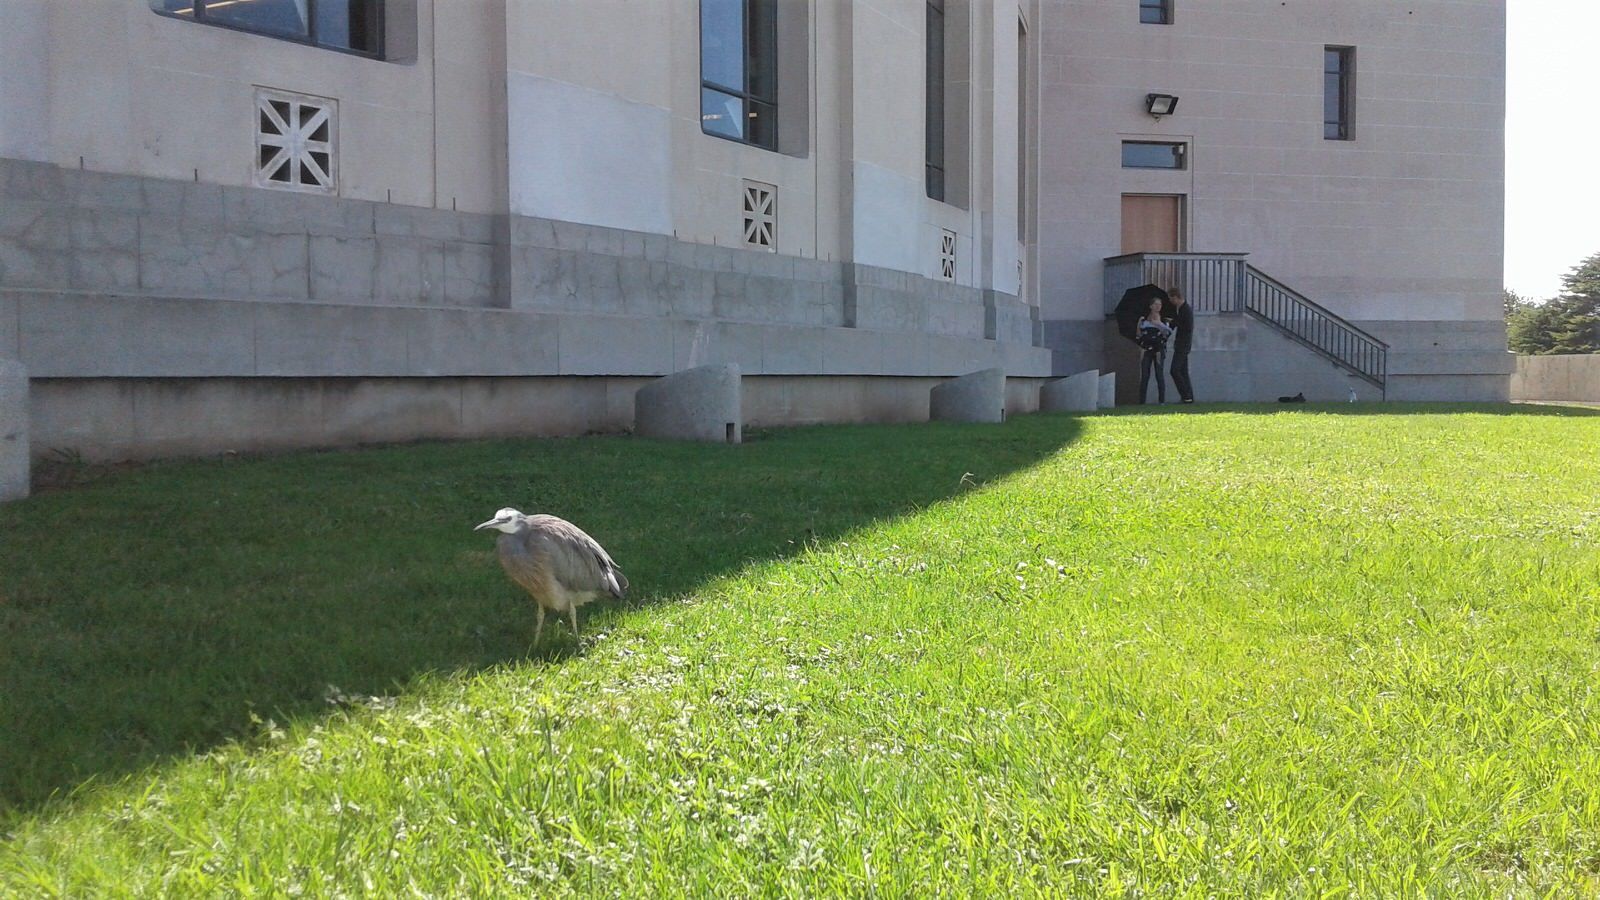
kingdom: Animalia
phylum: Chordata
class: Aves
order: Pelecaniformes
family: Ardeidae
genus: Egretta
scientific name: Egretta novaehollandiae
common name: White-faced heron
